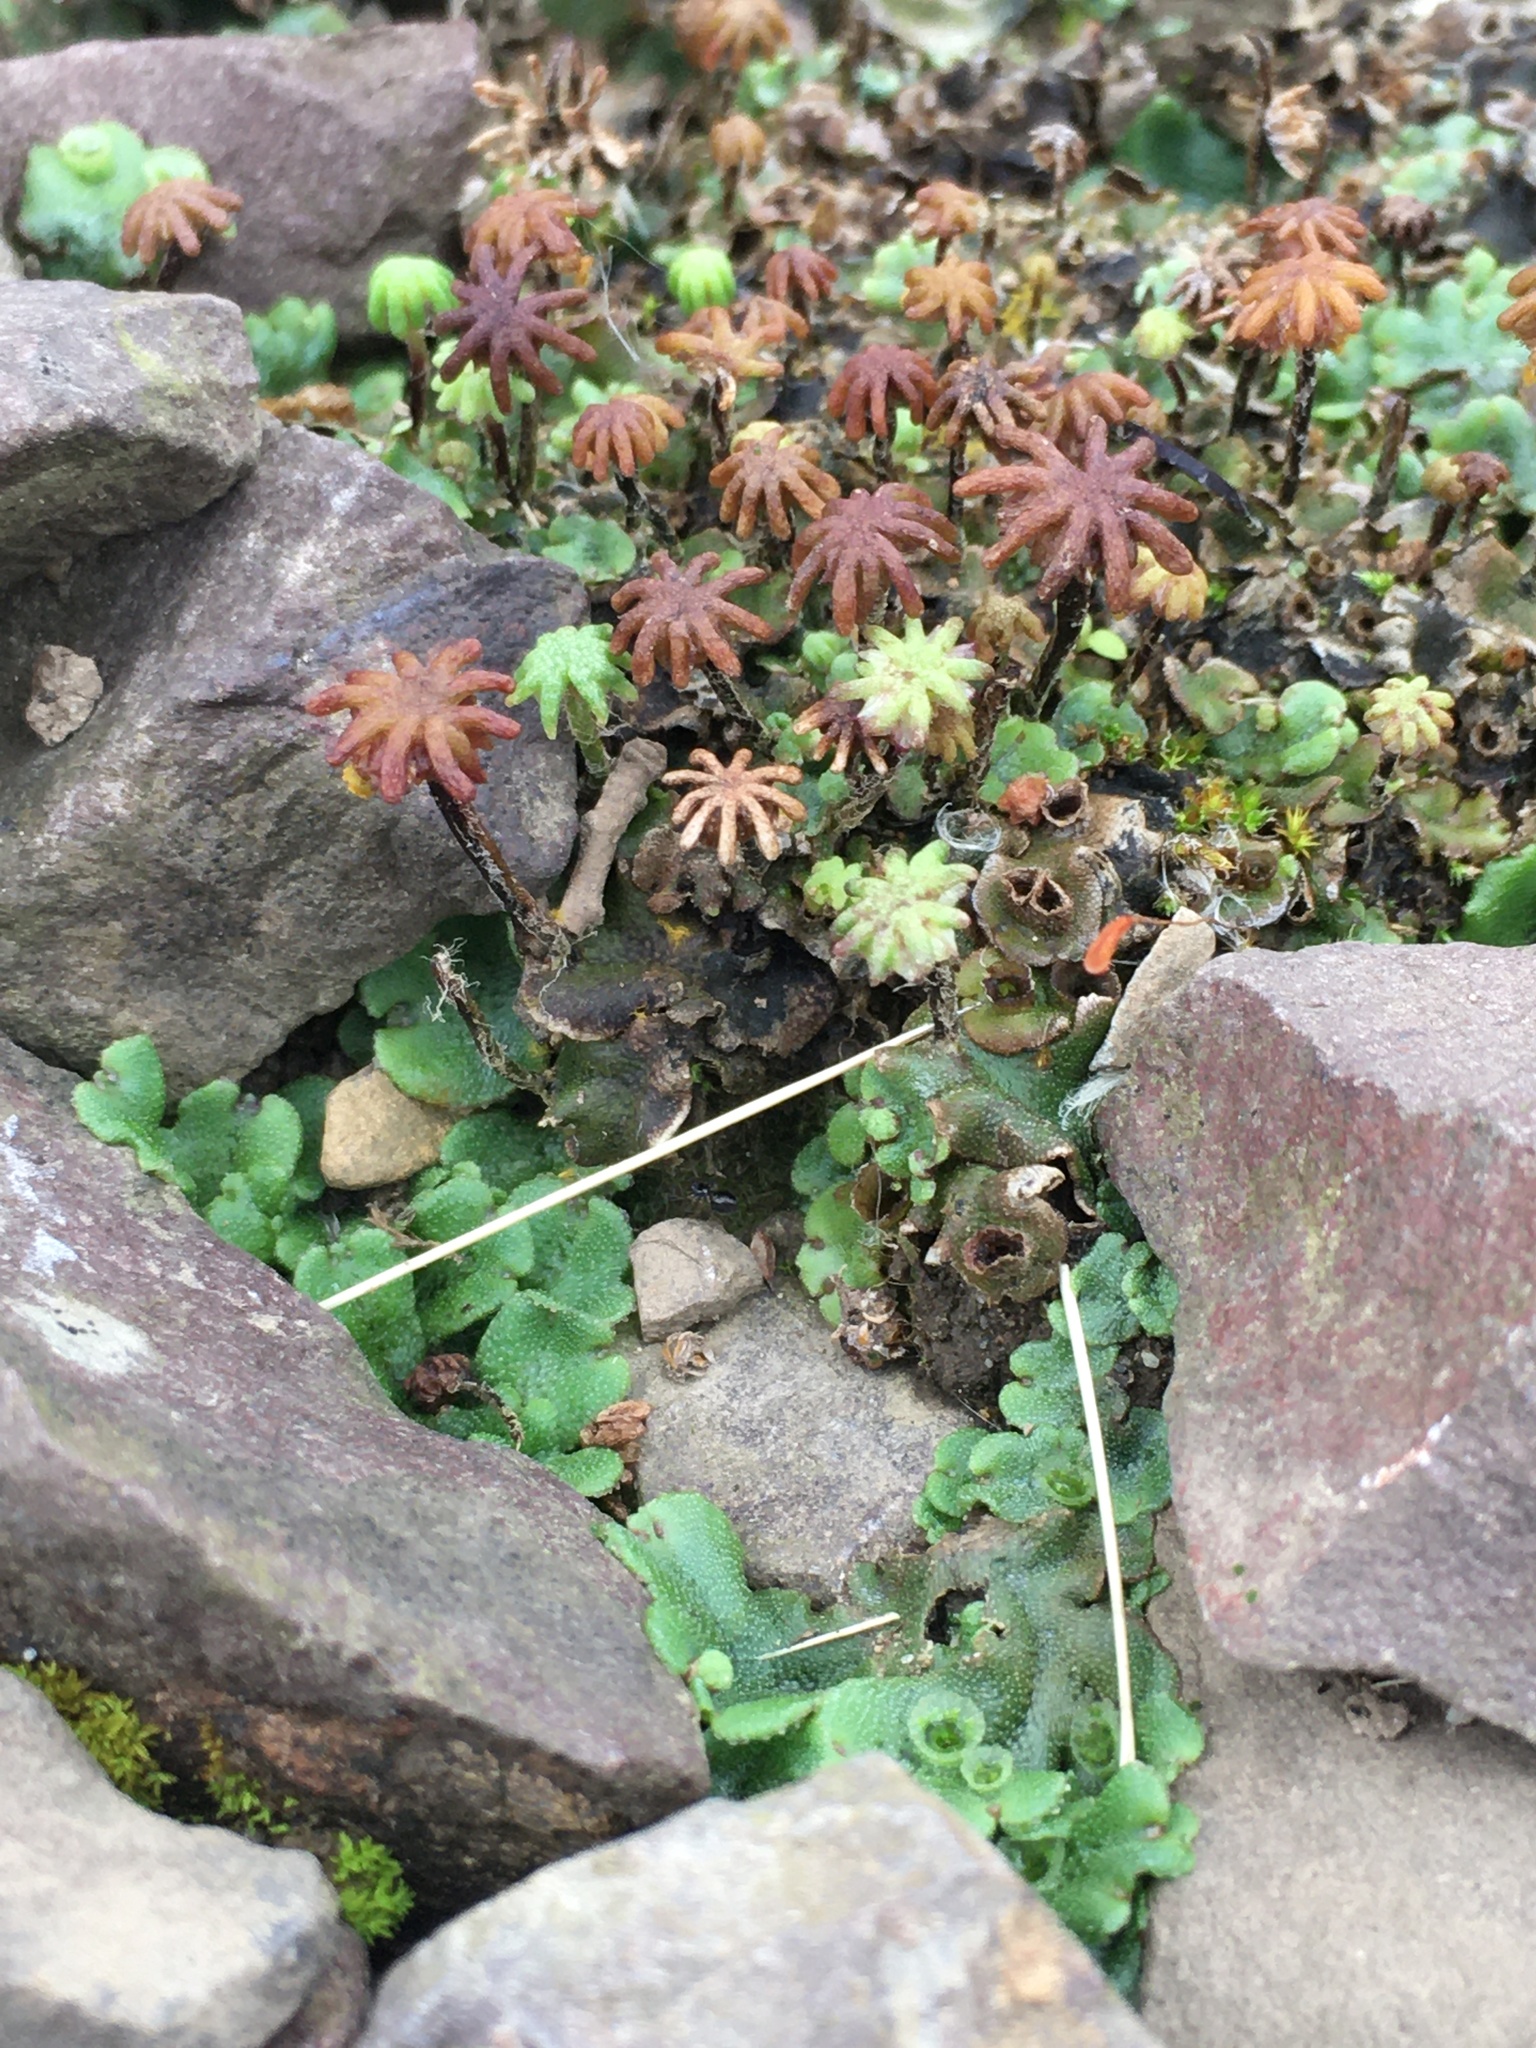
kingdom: Plantae
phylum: Marchantiophyta
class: Marchantiopsida
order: Marchantiales
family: Marchantiaceae
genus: Marchantia
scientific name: Marchantia polymorpha
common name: Common liverwort
